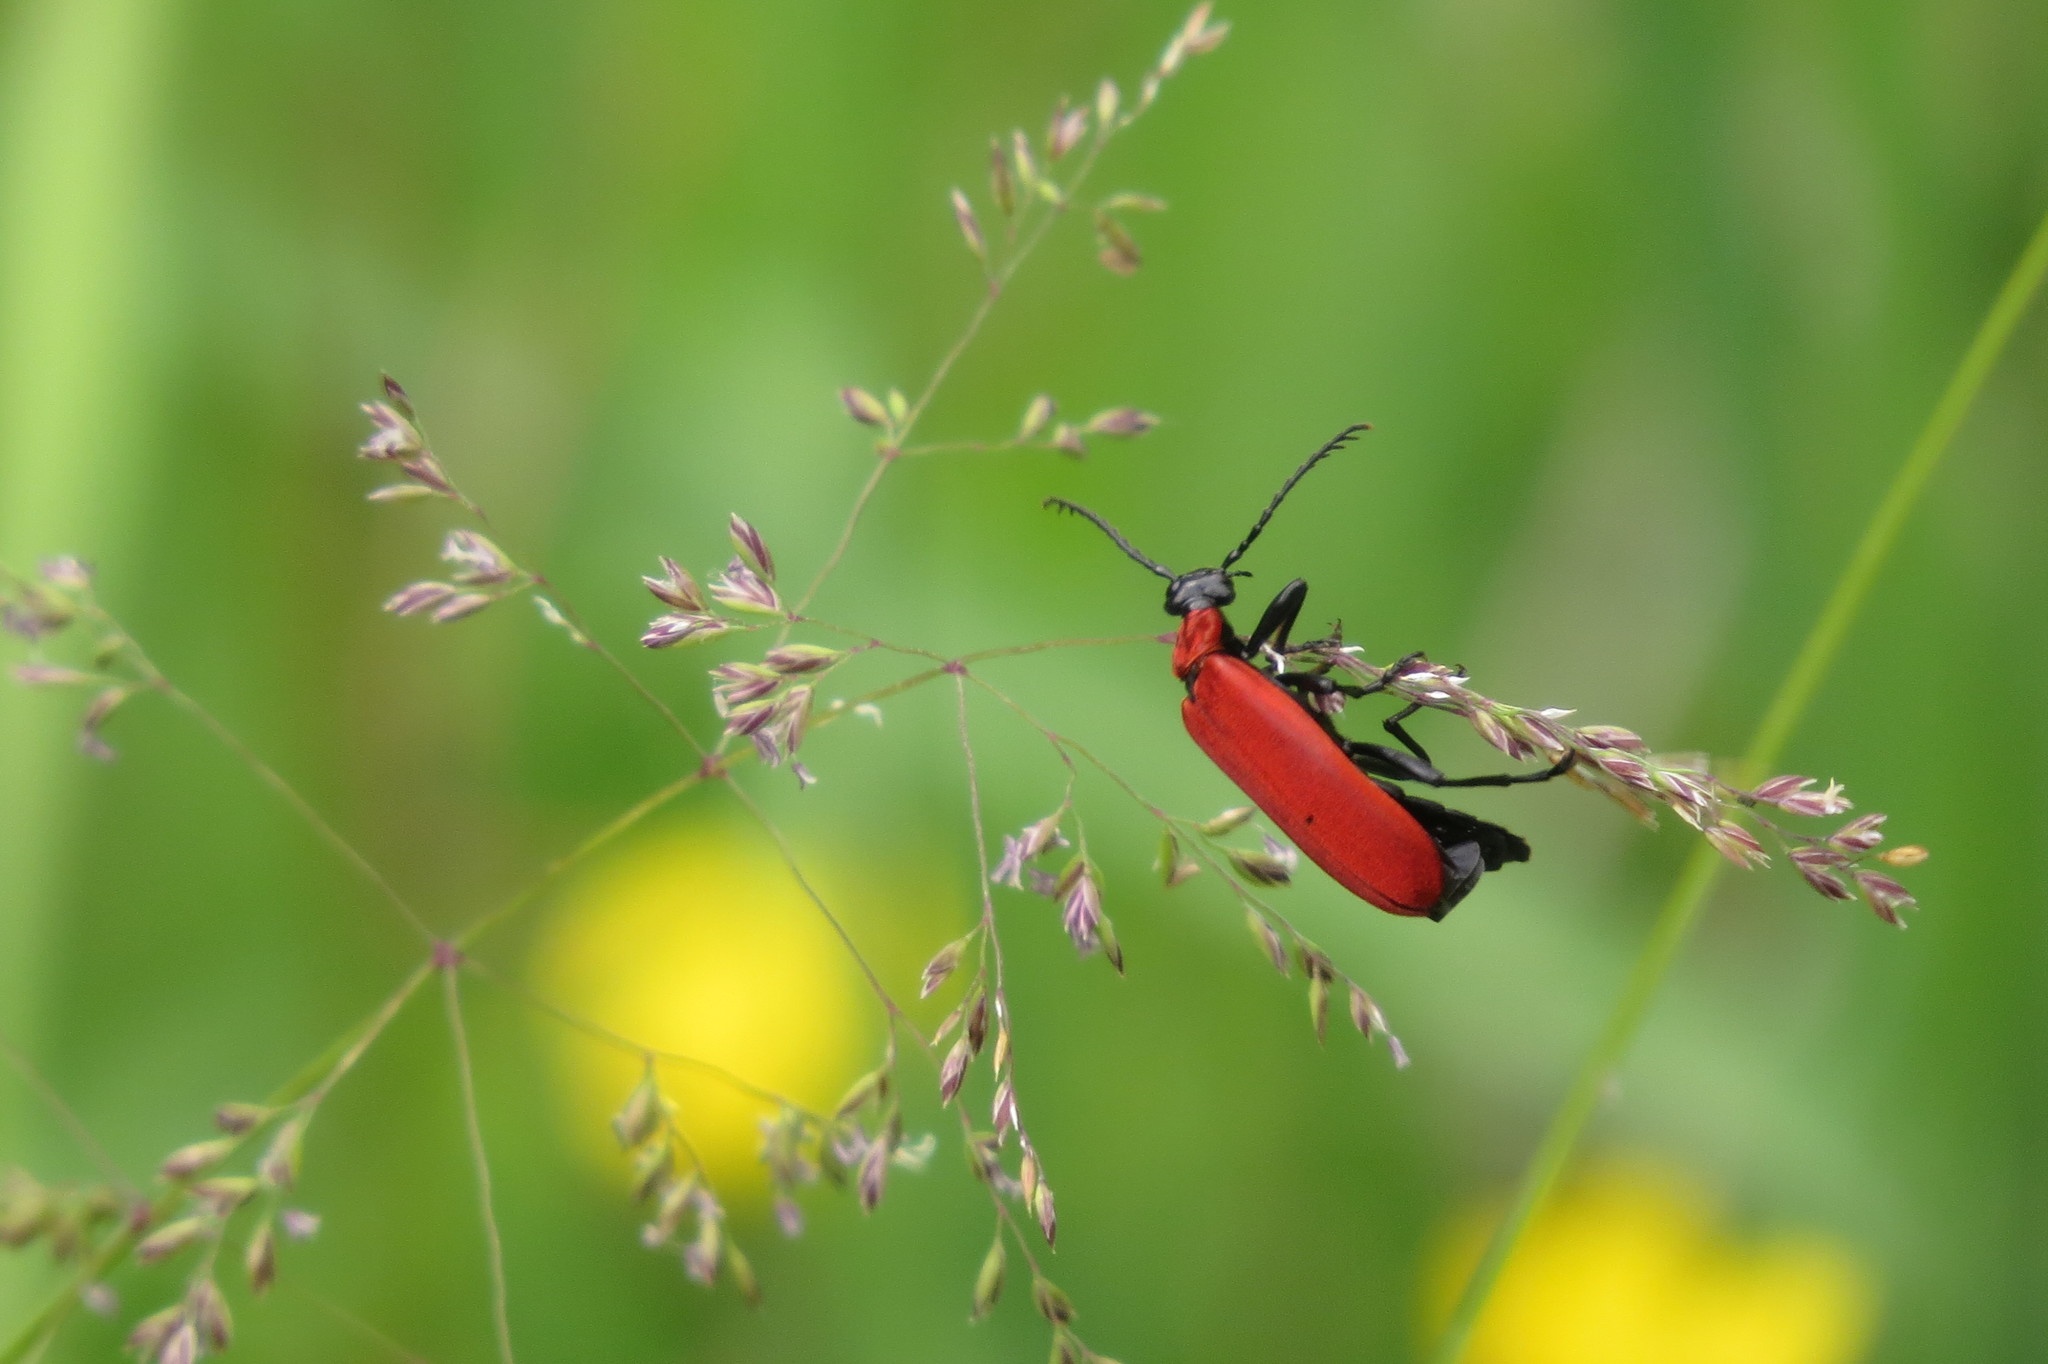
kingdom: Animalia
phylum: Arthropoda
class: Insecta
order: Coleoptera
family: Pyrochroidae
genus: Pyrochroa
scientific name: Pyrochroa coccinea
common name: Black-headed cardinal beetle
